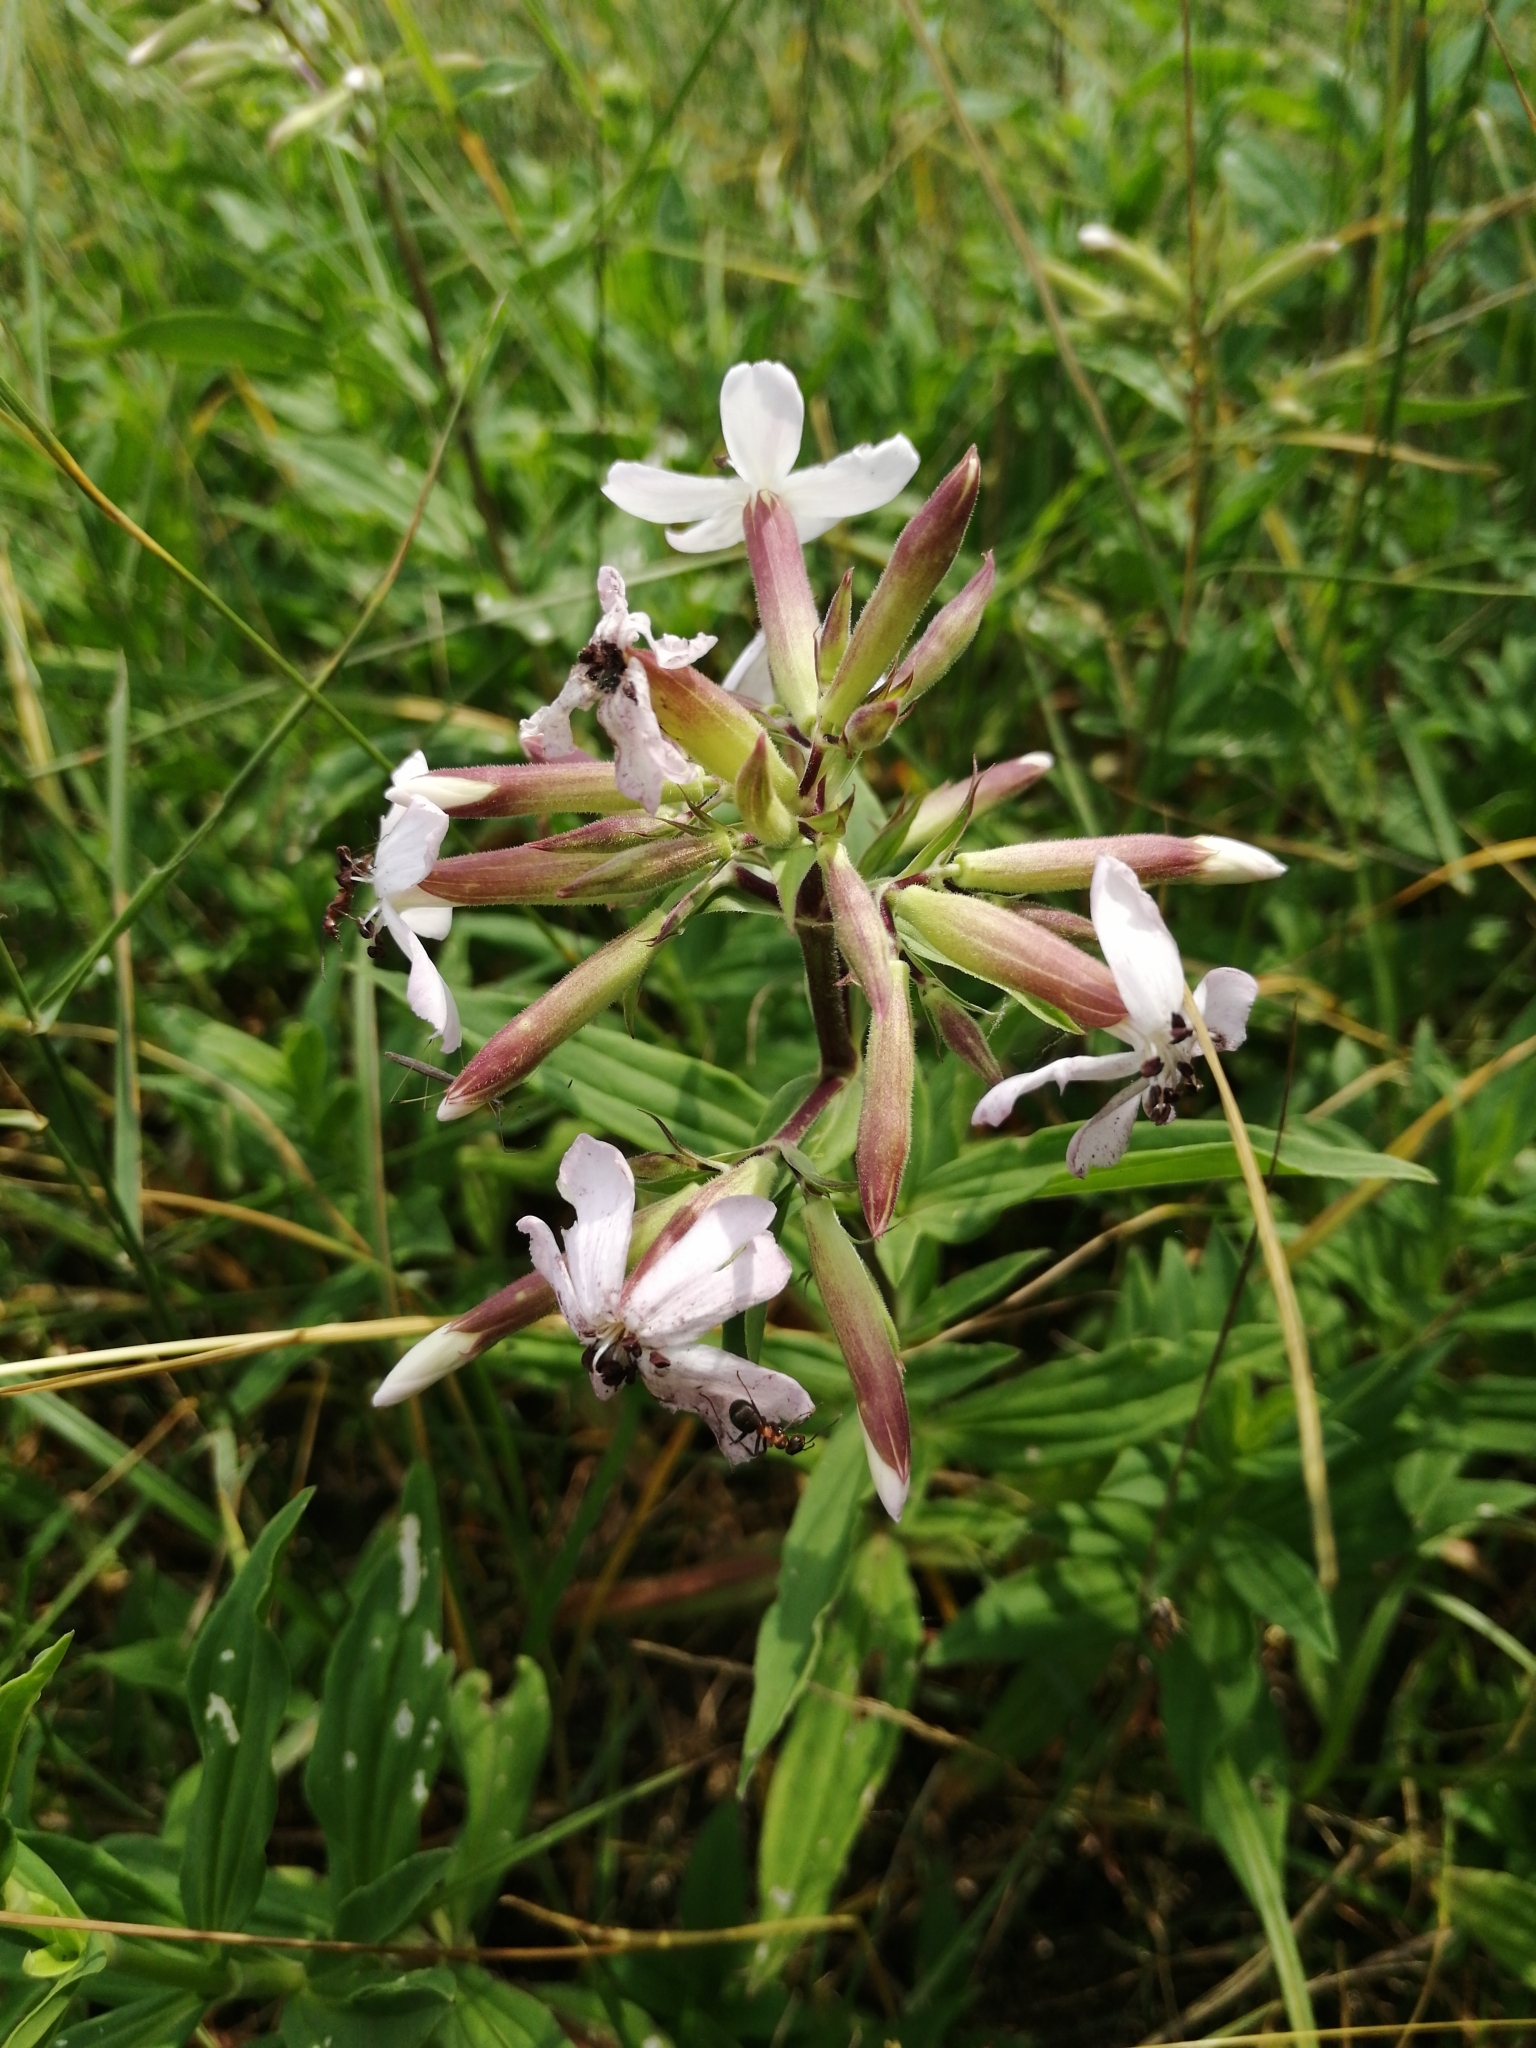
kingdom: Plantae
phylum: Tracheophyta
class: Magnoliopsida
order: Caryophyllales
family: Caryophyllaceae
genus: Saponaria
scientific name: Saponaria officinalis
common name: Soapwort
